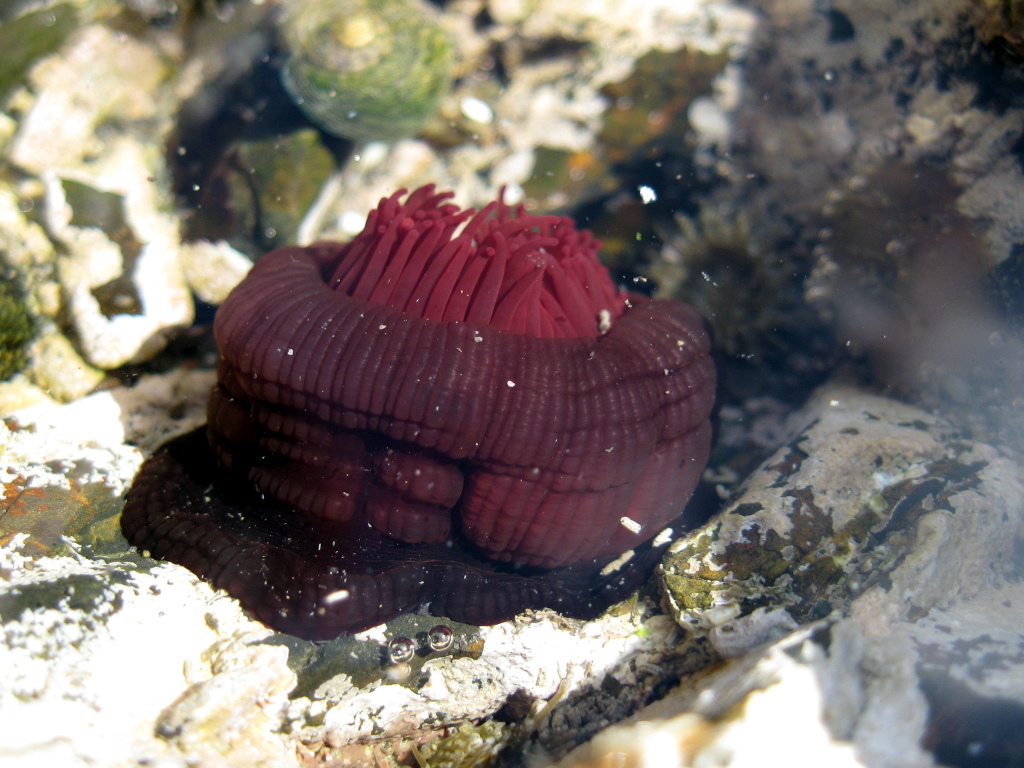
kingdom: Animalia
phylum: Cnidaria
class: Anthozoa
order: Actiniaria
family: Actiniidae
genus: Actinia
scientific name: Actinia tenebrosa
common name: Waratah anemone
